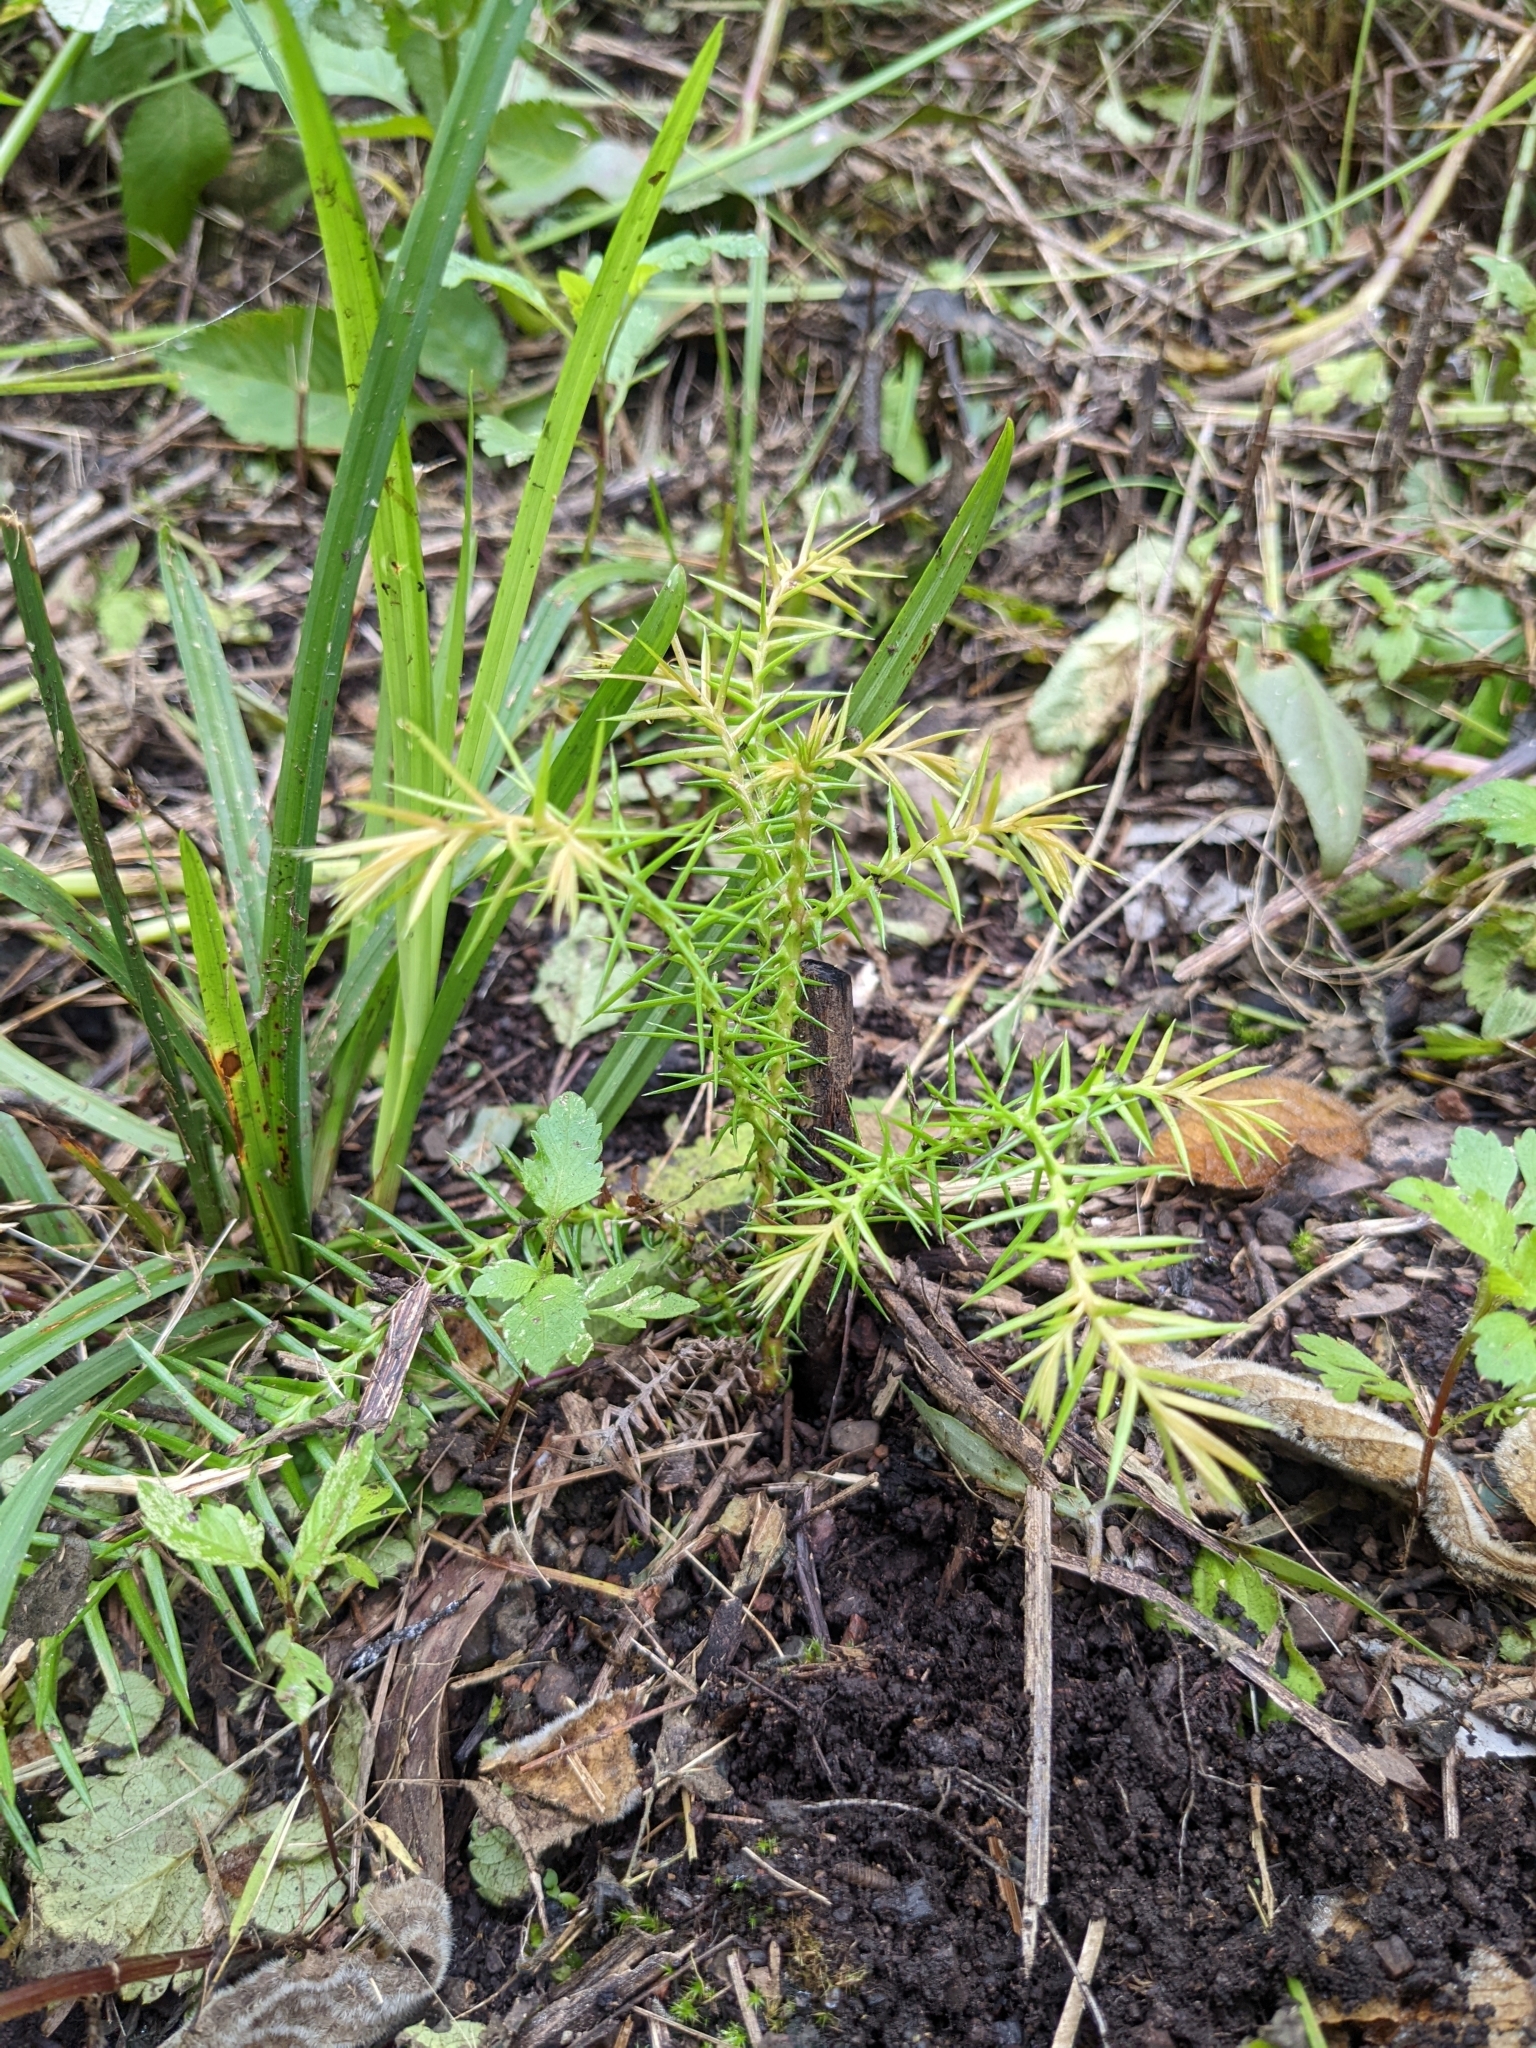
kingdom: Plantae
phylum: Tracheophyta
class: Pinopsida
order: Pinales
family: Araucariaceae
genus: Araucaria
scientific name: Araucaria cunninghamii
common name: Colonial pine
